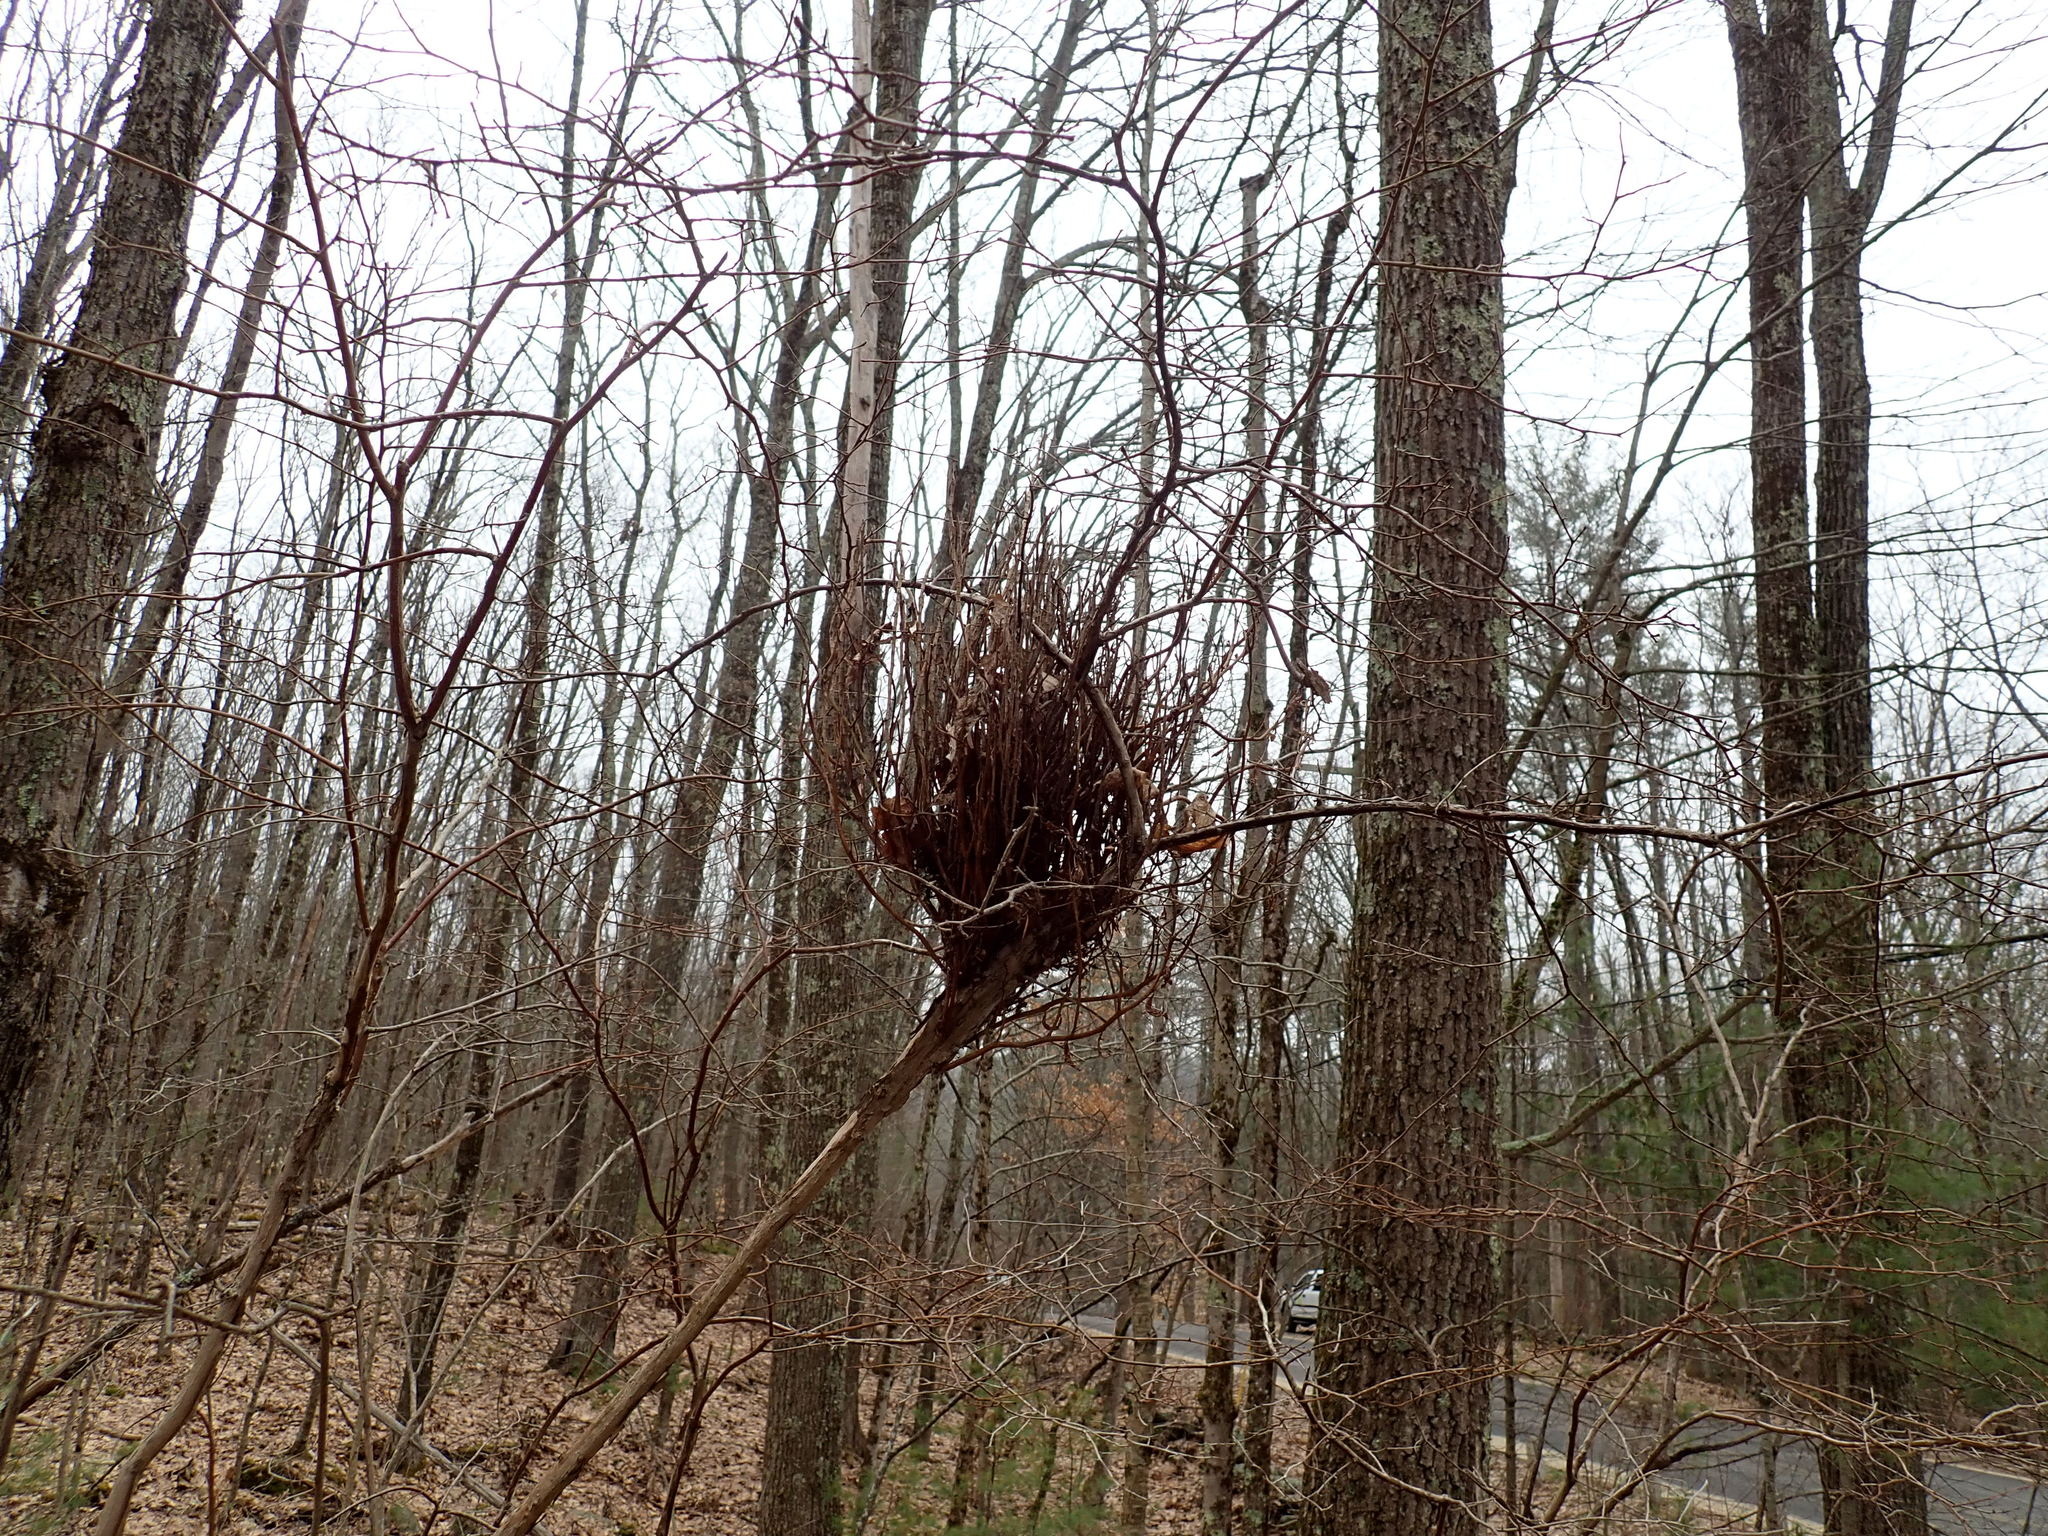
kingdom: Fungi
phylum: Basidiomycota
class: Pucciniomycetes
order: Pucciniales
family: Pucciniastraceae
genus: Calyptospora
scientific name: Calyptospora columnaris
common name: Huckleberry broom rust fungus
